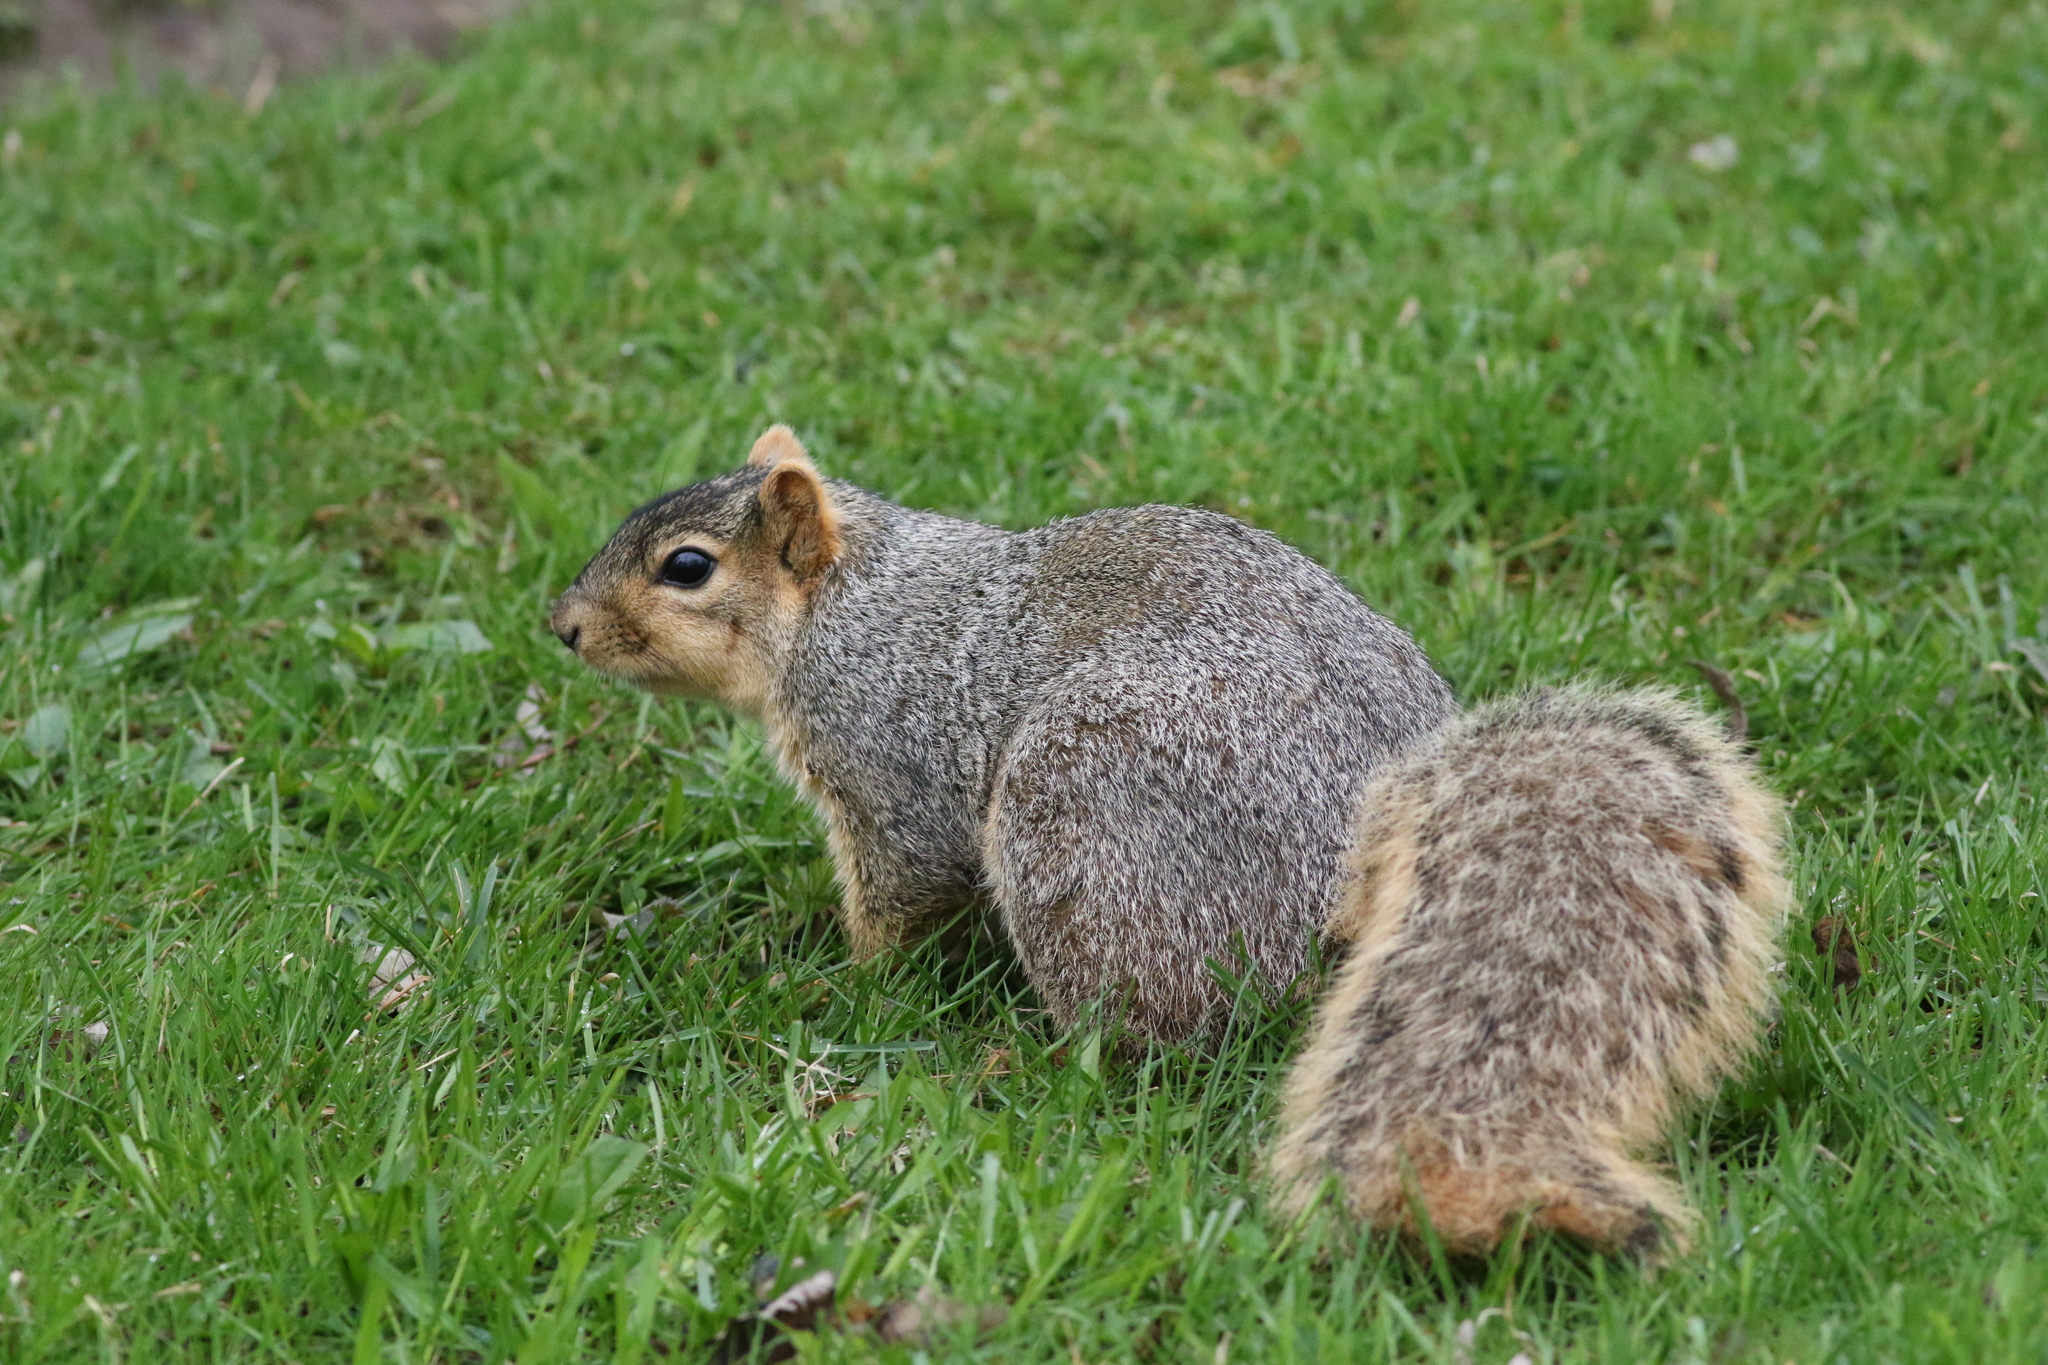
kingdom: Animalia
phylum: Chordata
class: Mammalia
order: Rodentia
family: Sciuridae
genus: Sciurus
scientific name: Sciurus niger
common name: Fox squirrel
